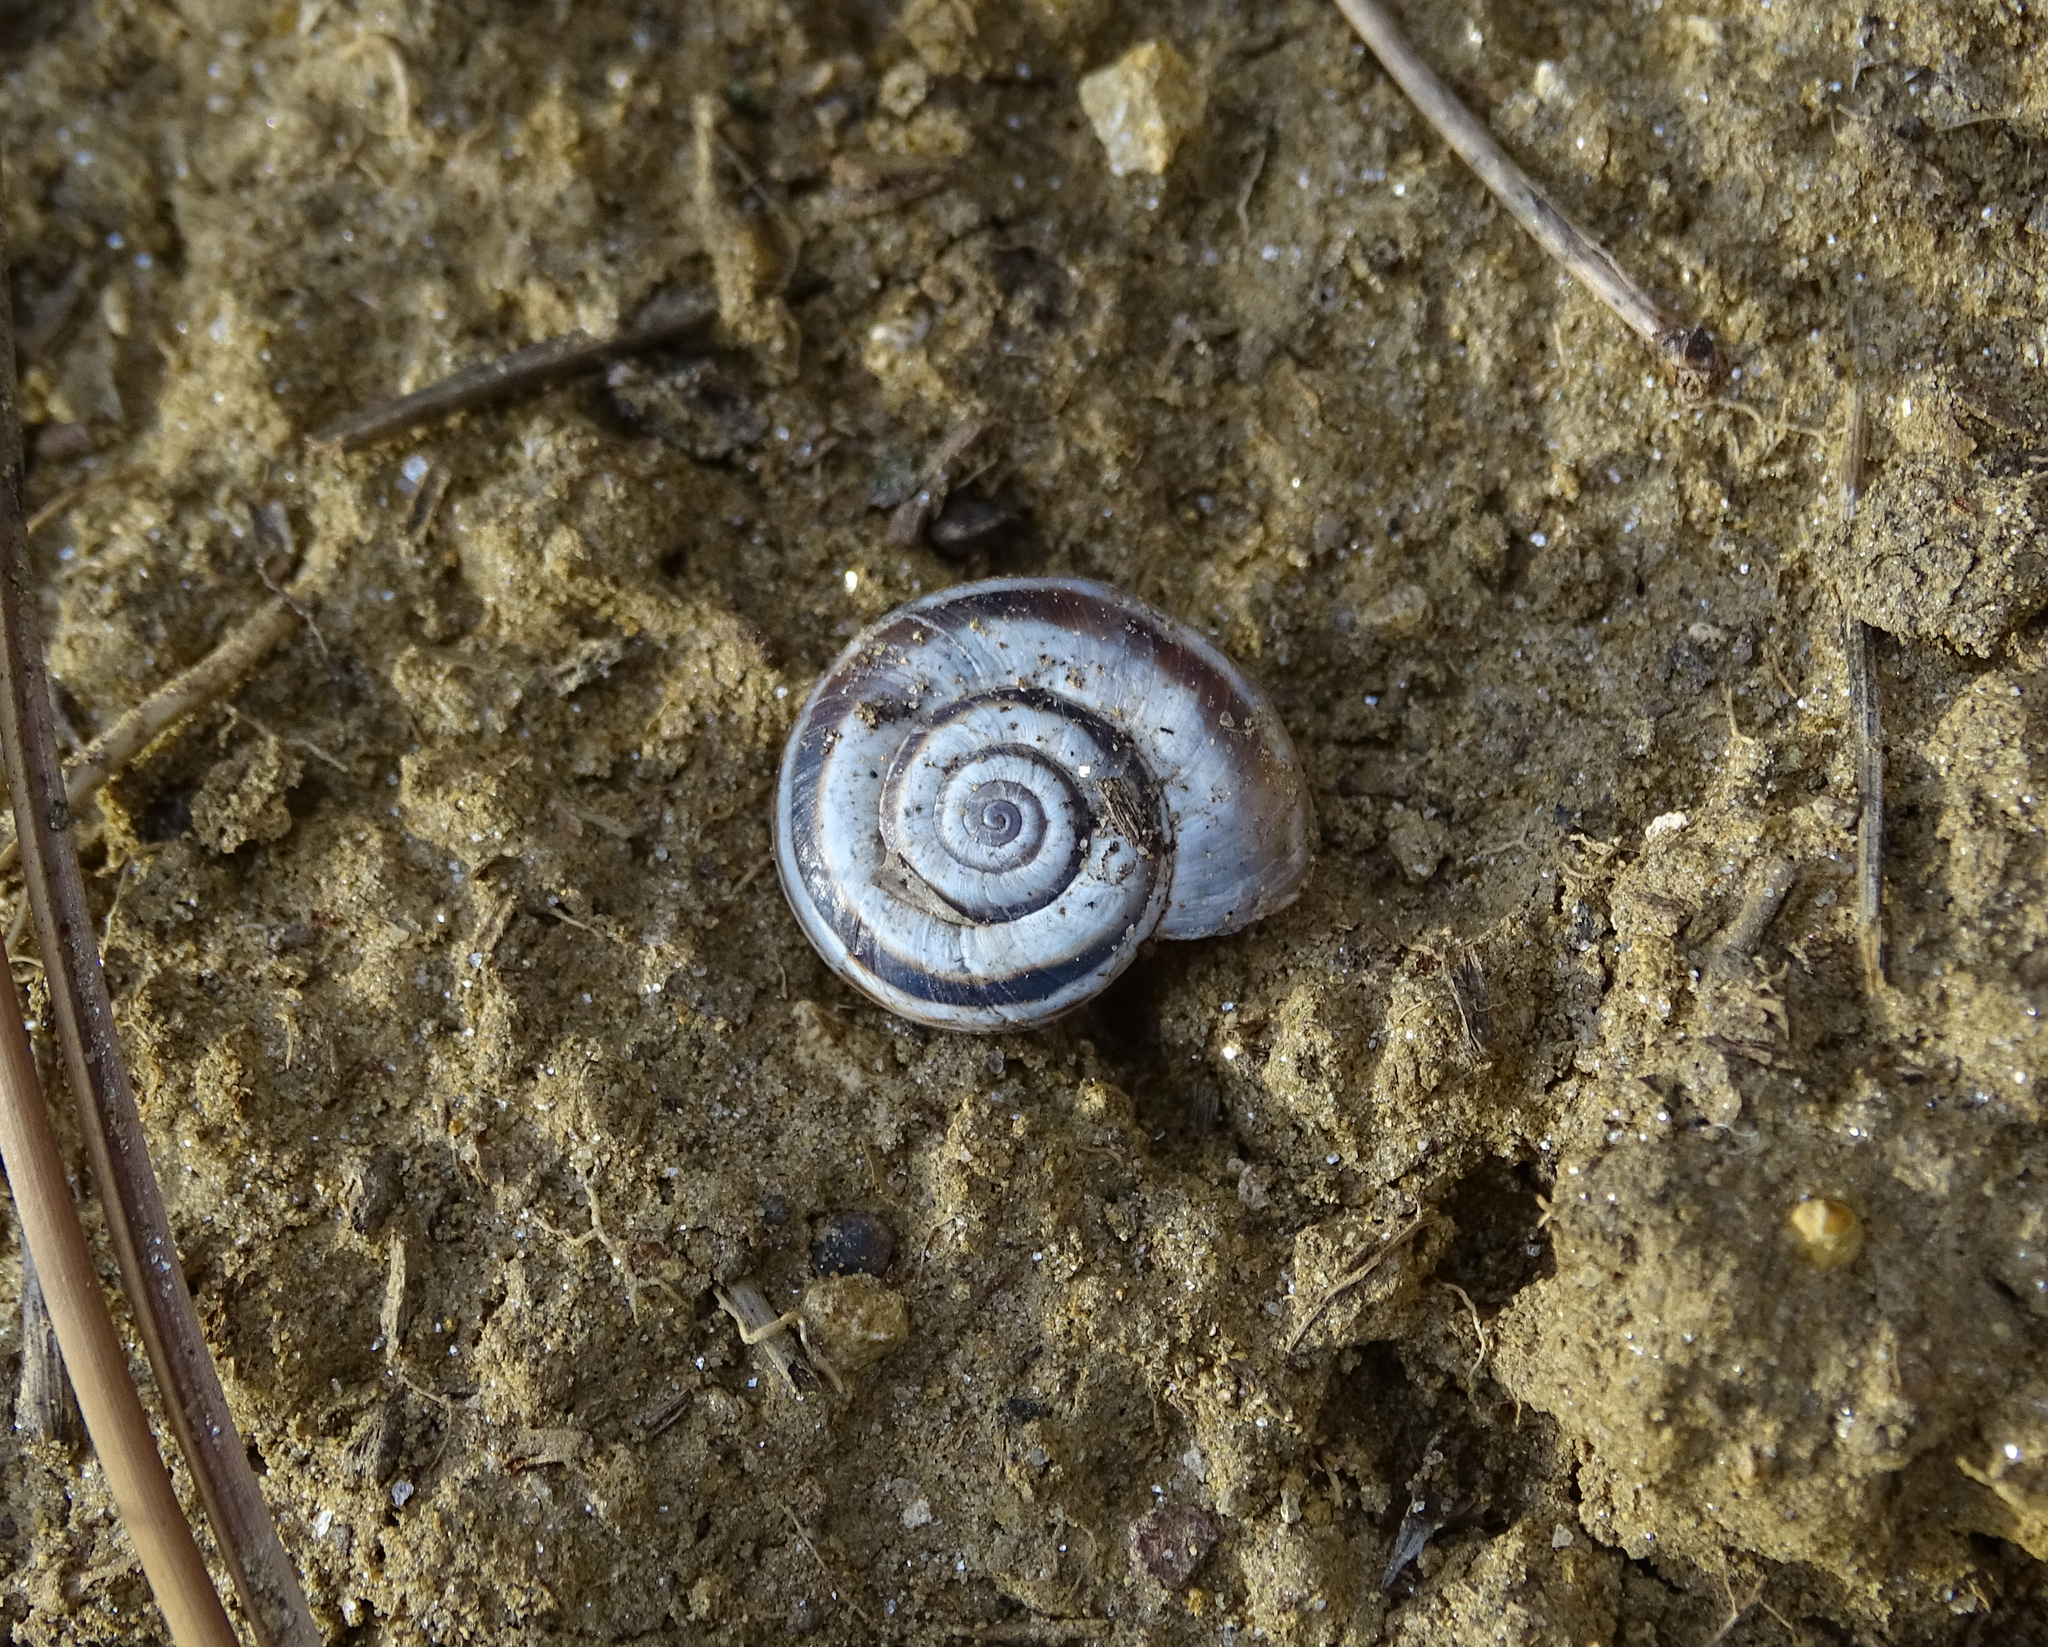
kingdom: Animalia
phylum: Mollusca
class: Gastropoda
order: Stylommatophora
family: Geomitridae
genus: Xerolenta
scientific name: Xerolenta obvia
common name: White heath snail
